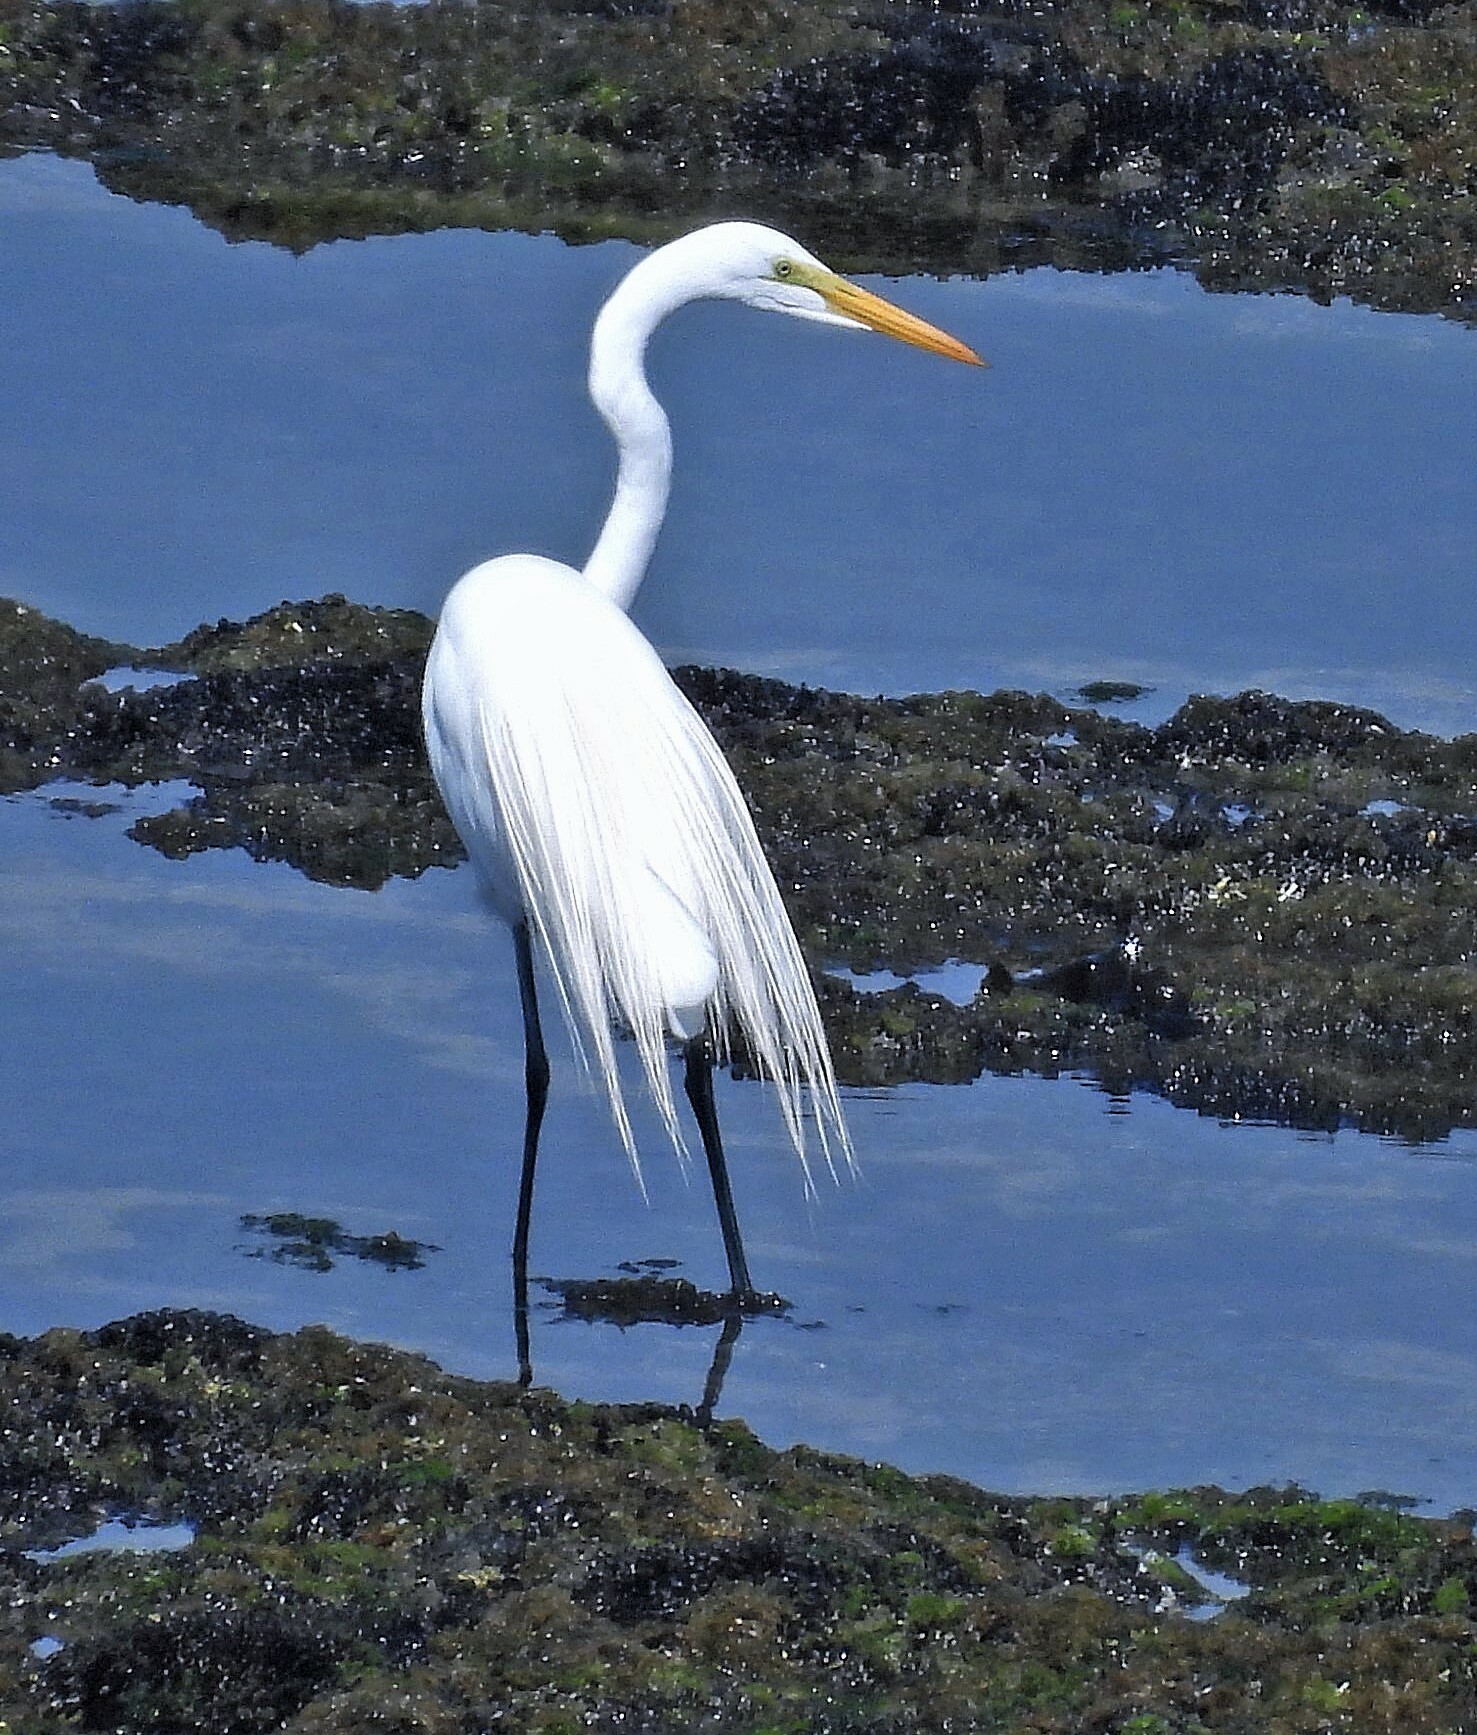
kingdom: Animalia
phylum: Chordata
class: Aves
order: Pelecaniformes
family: Ardeidae
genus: Ardea
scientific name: Ardea alba
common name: Great egret
